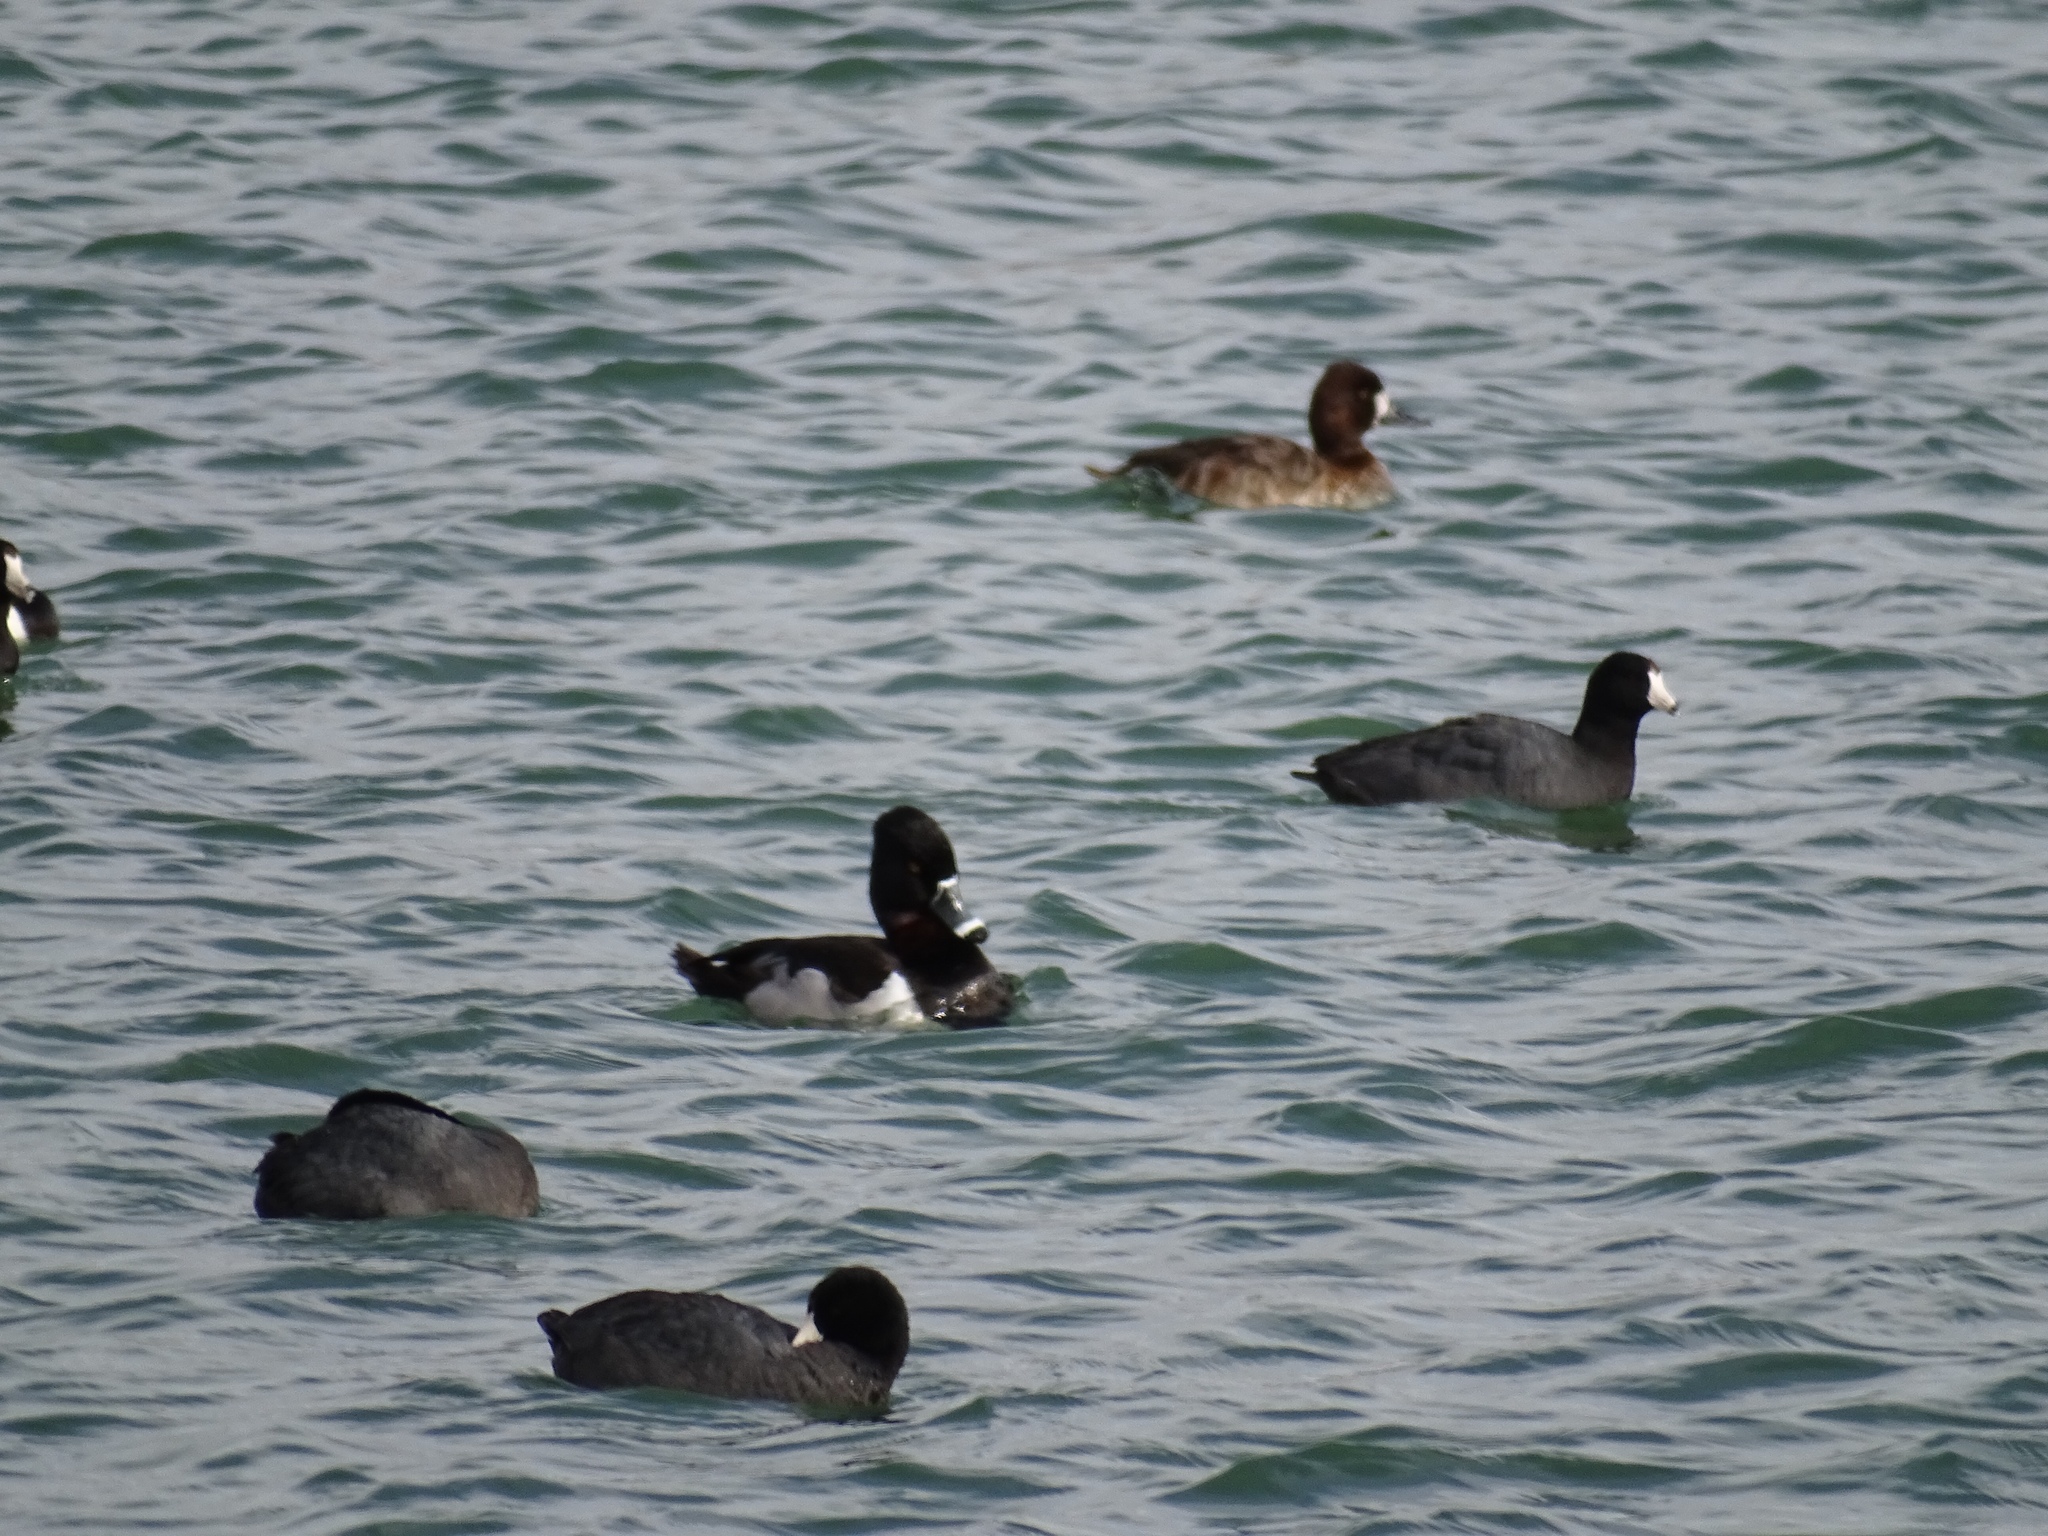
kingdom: Animalia
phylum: Chordata
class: Aves
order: Gruiformes
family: Rallidae
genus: Fulica
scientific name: Fulica americana
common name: American coot
